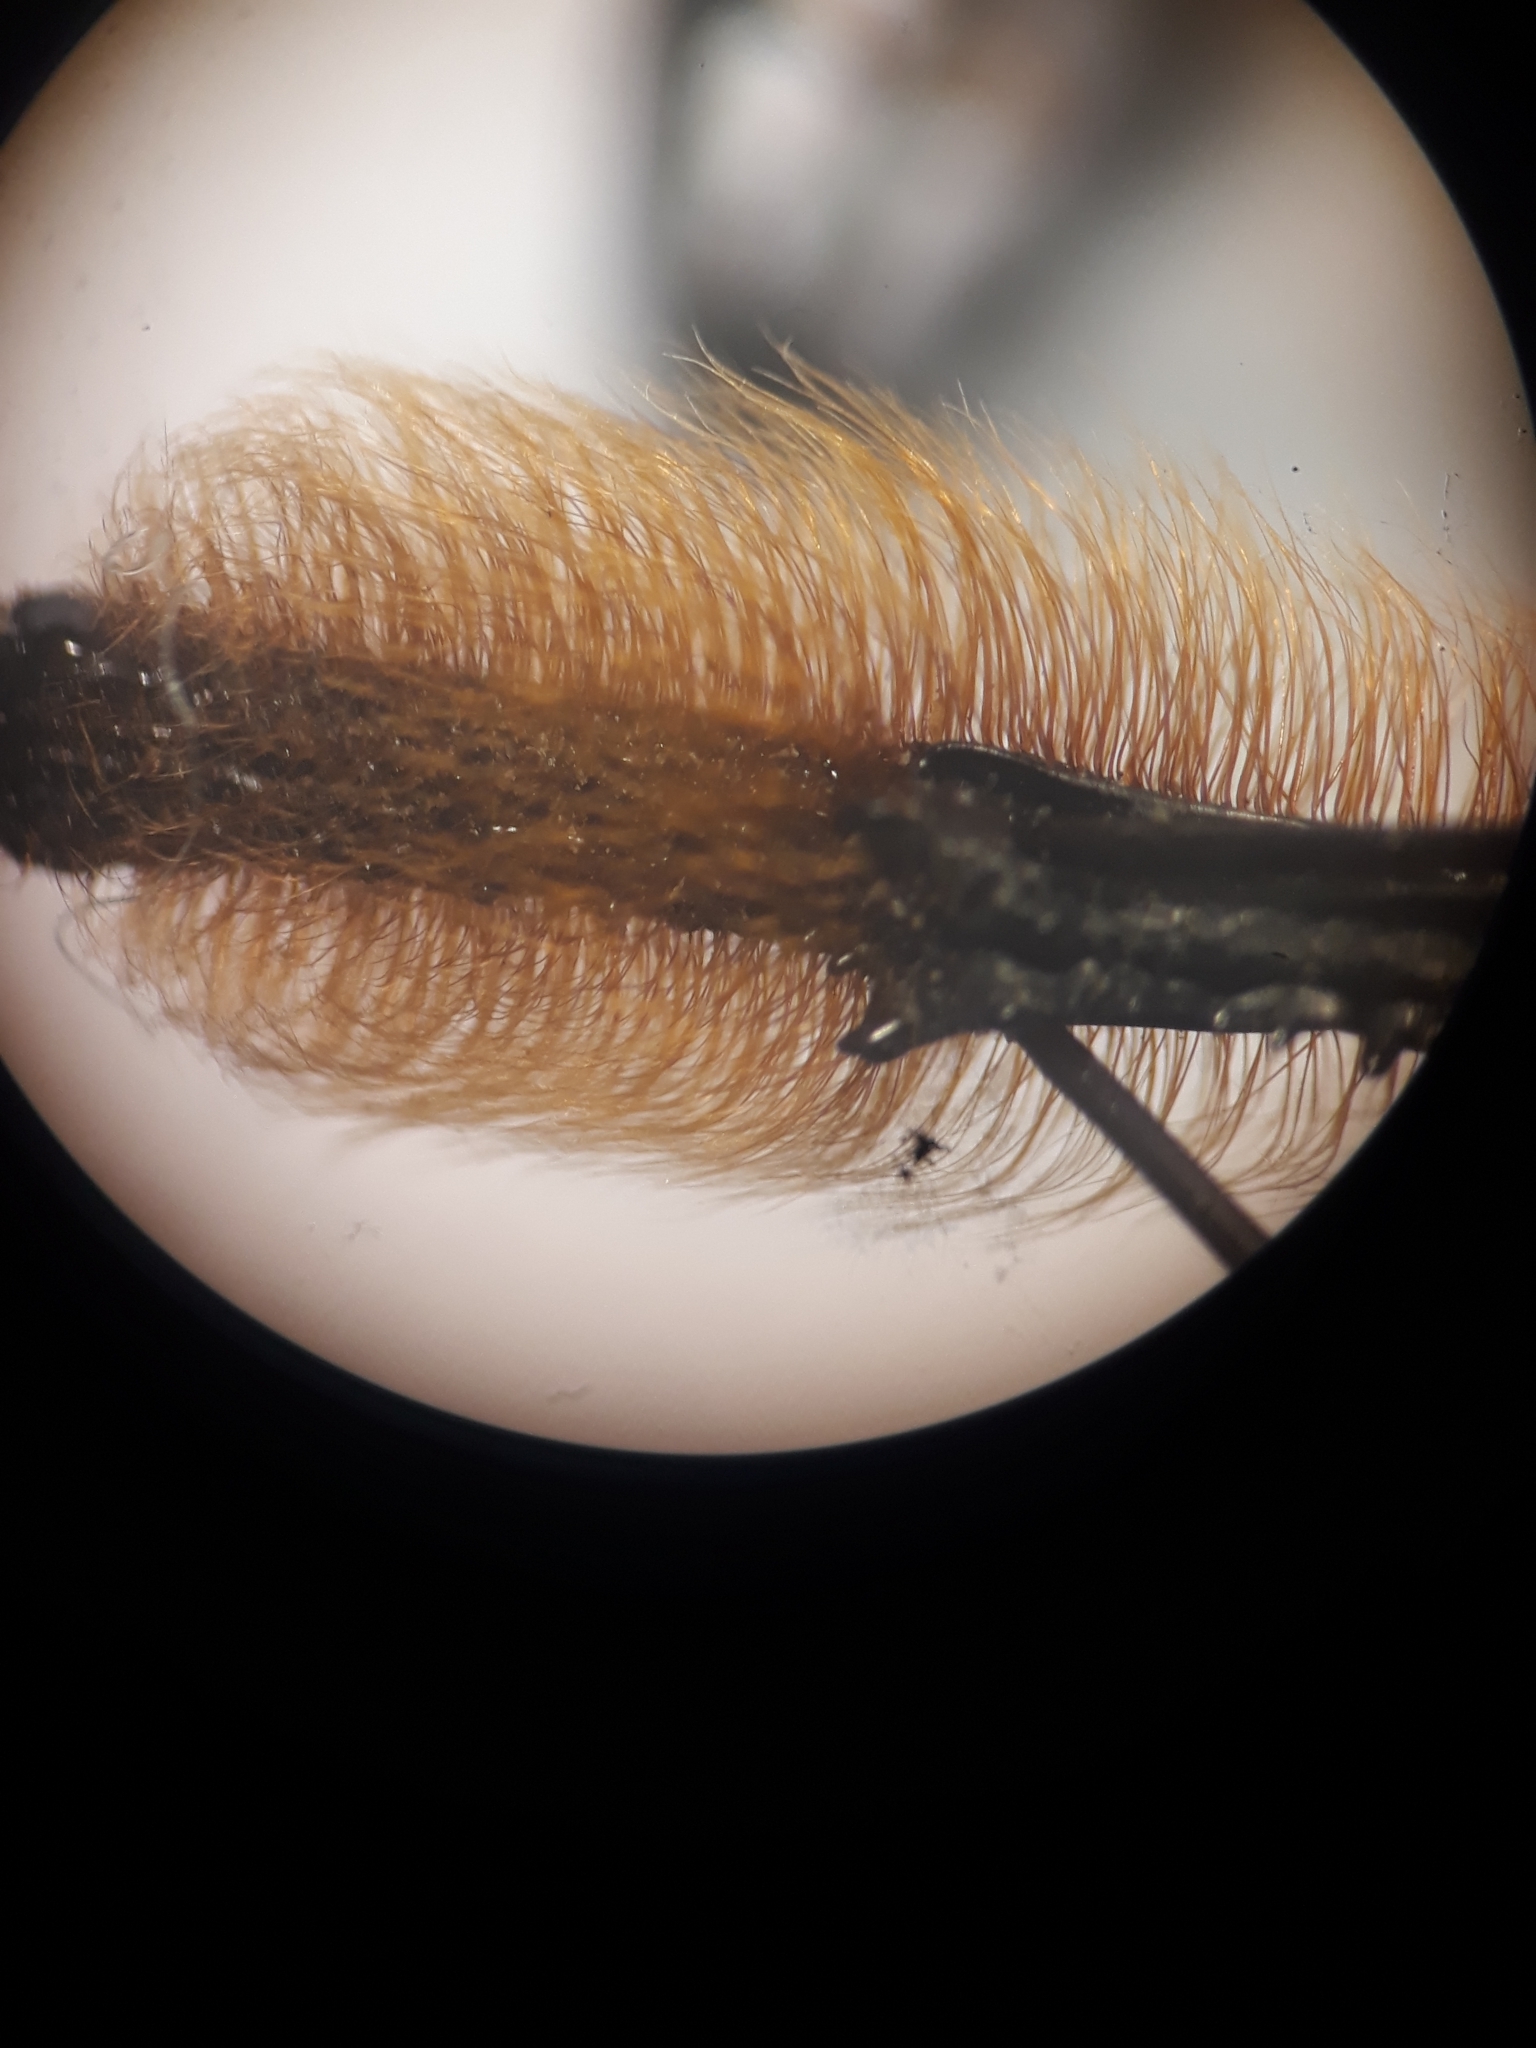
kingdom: Animalia
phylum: Arthropoda
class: Insecta
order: Coleoptera
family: Dryophthoridae
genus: Rhinostomus
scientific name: Rhinostomus barbirostris
